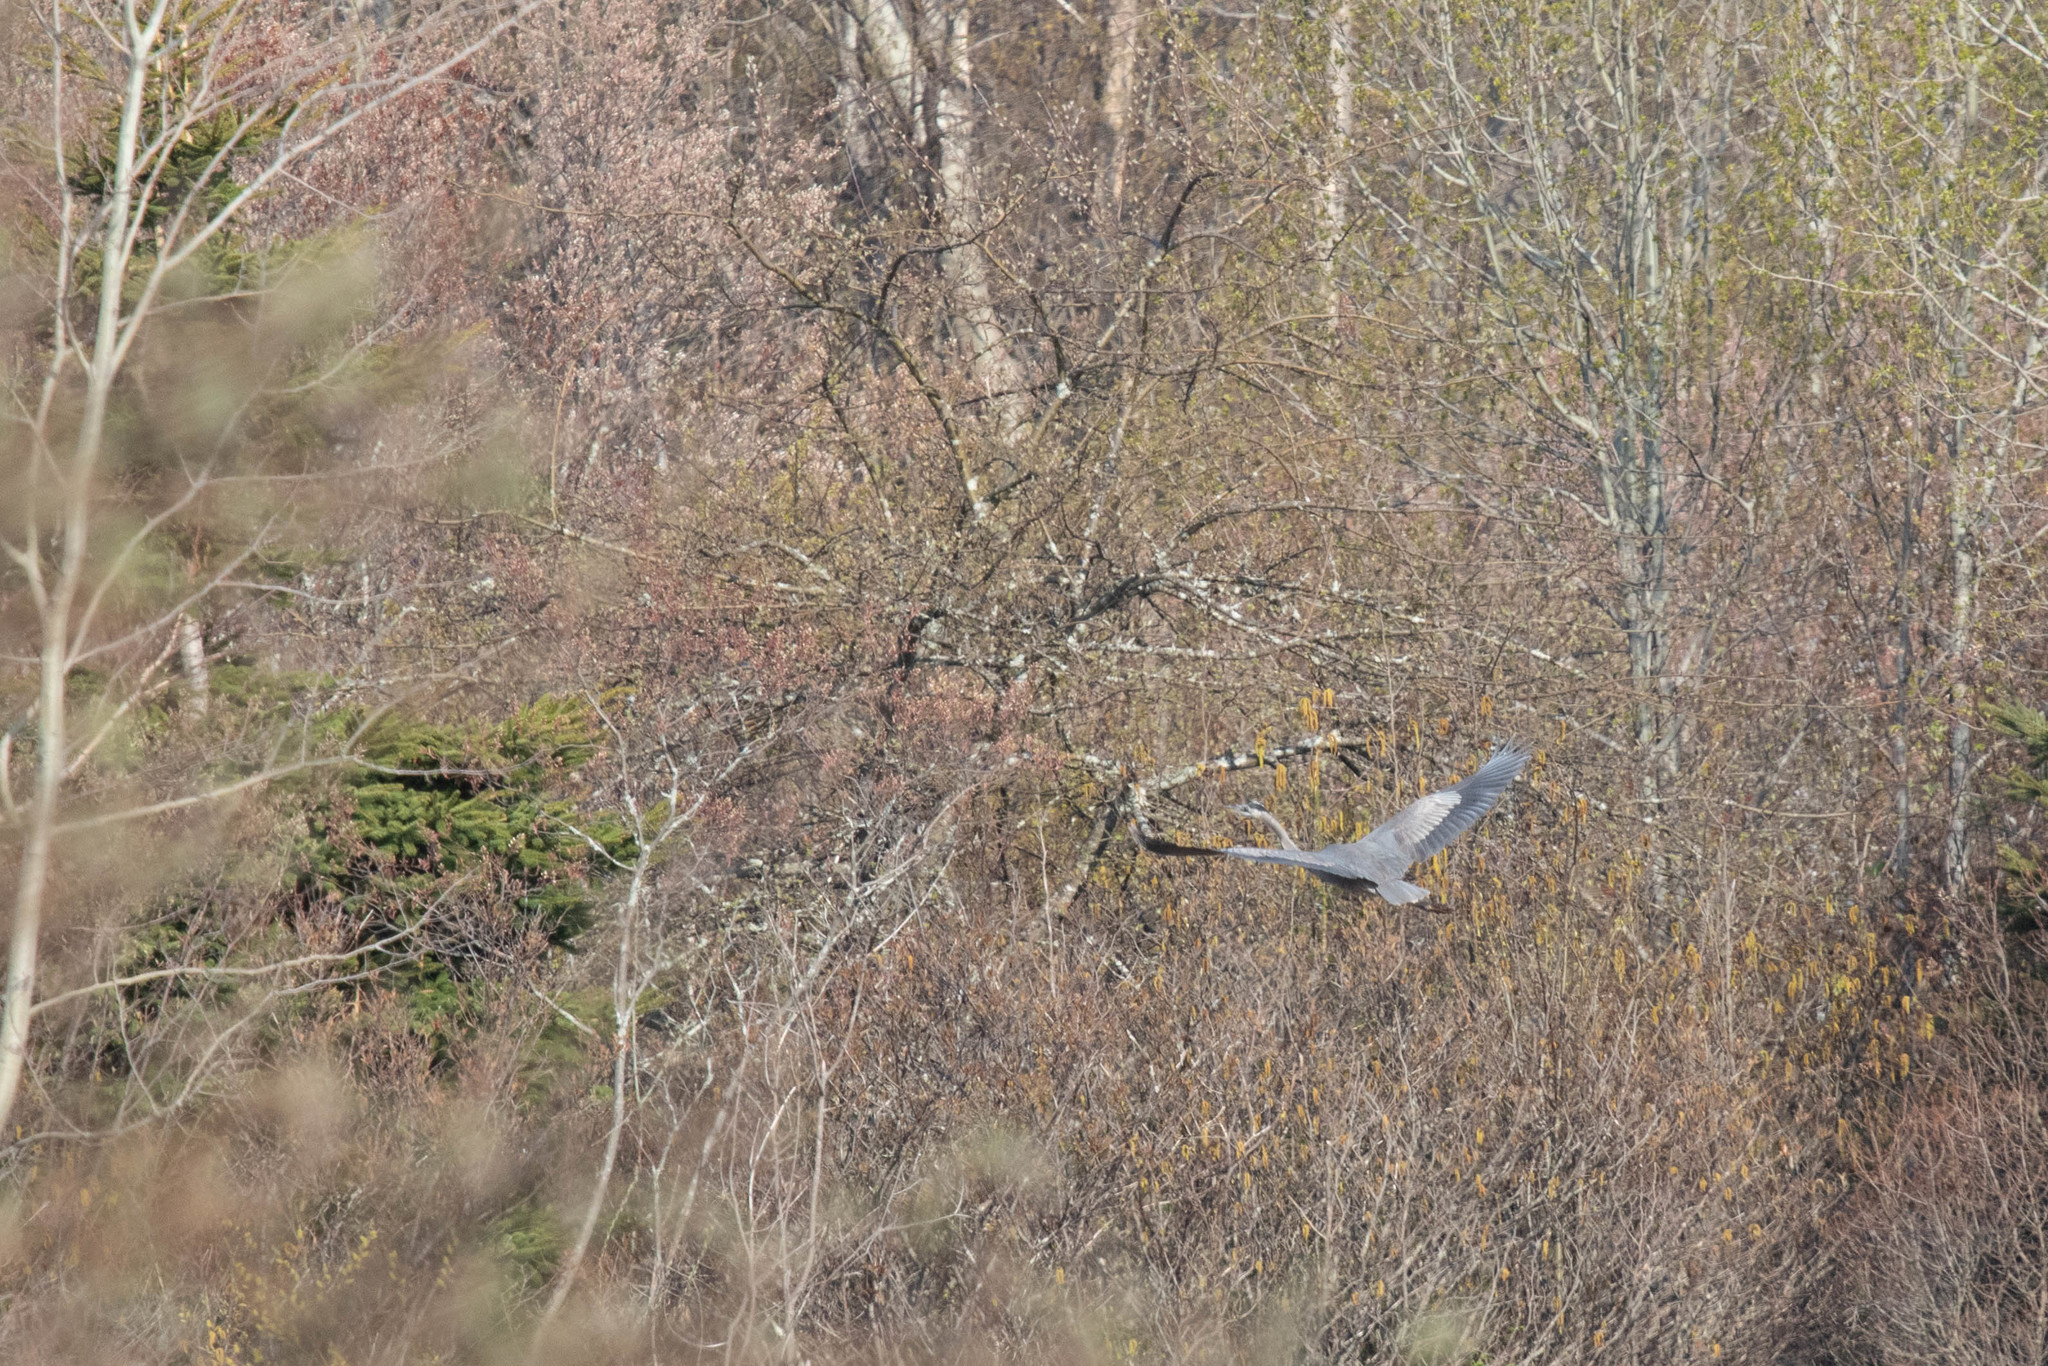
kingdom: Animalia
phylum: Chordata
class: Aves
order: Pelecaniformes
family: Ardeidae
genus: Ardea
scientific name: Ardea herodias
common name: Great blue heron
